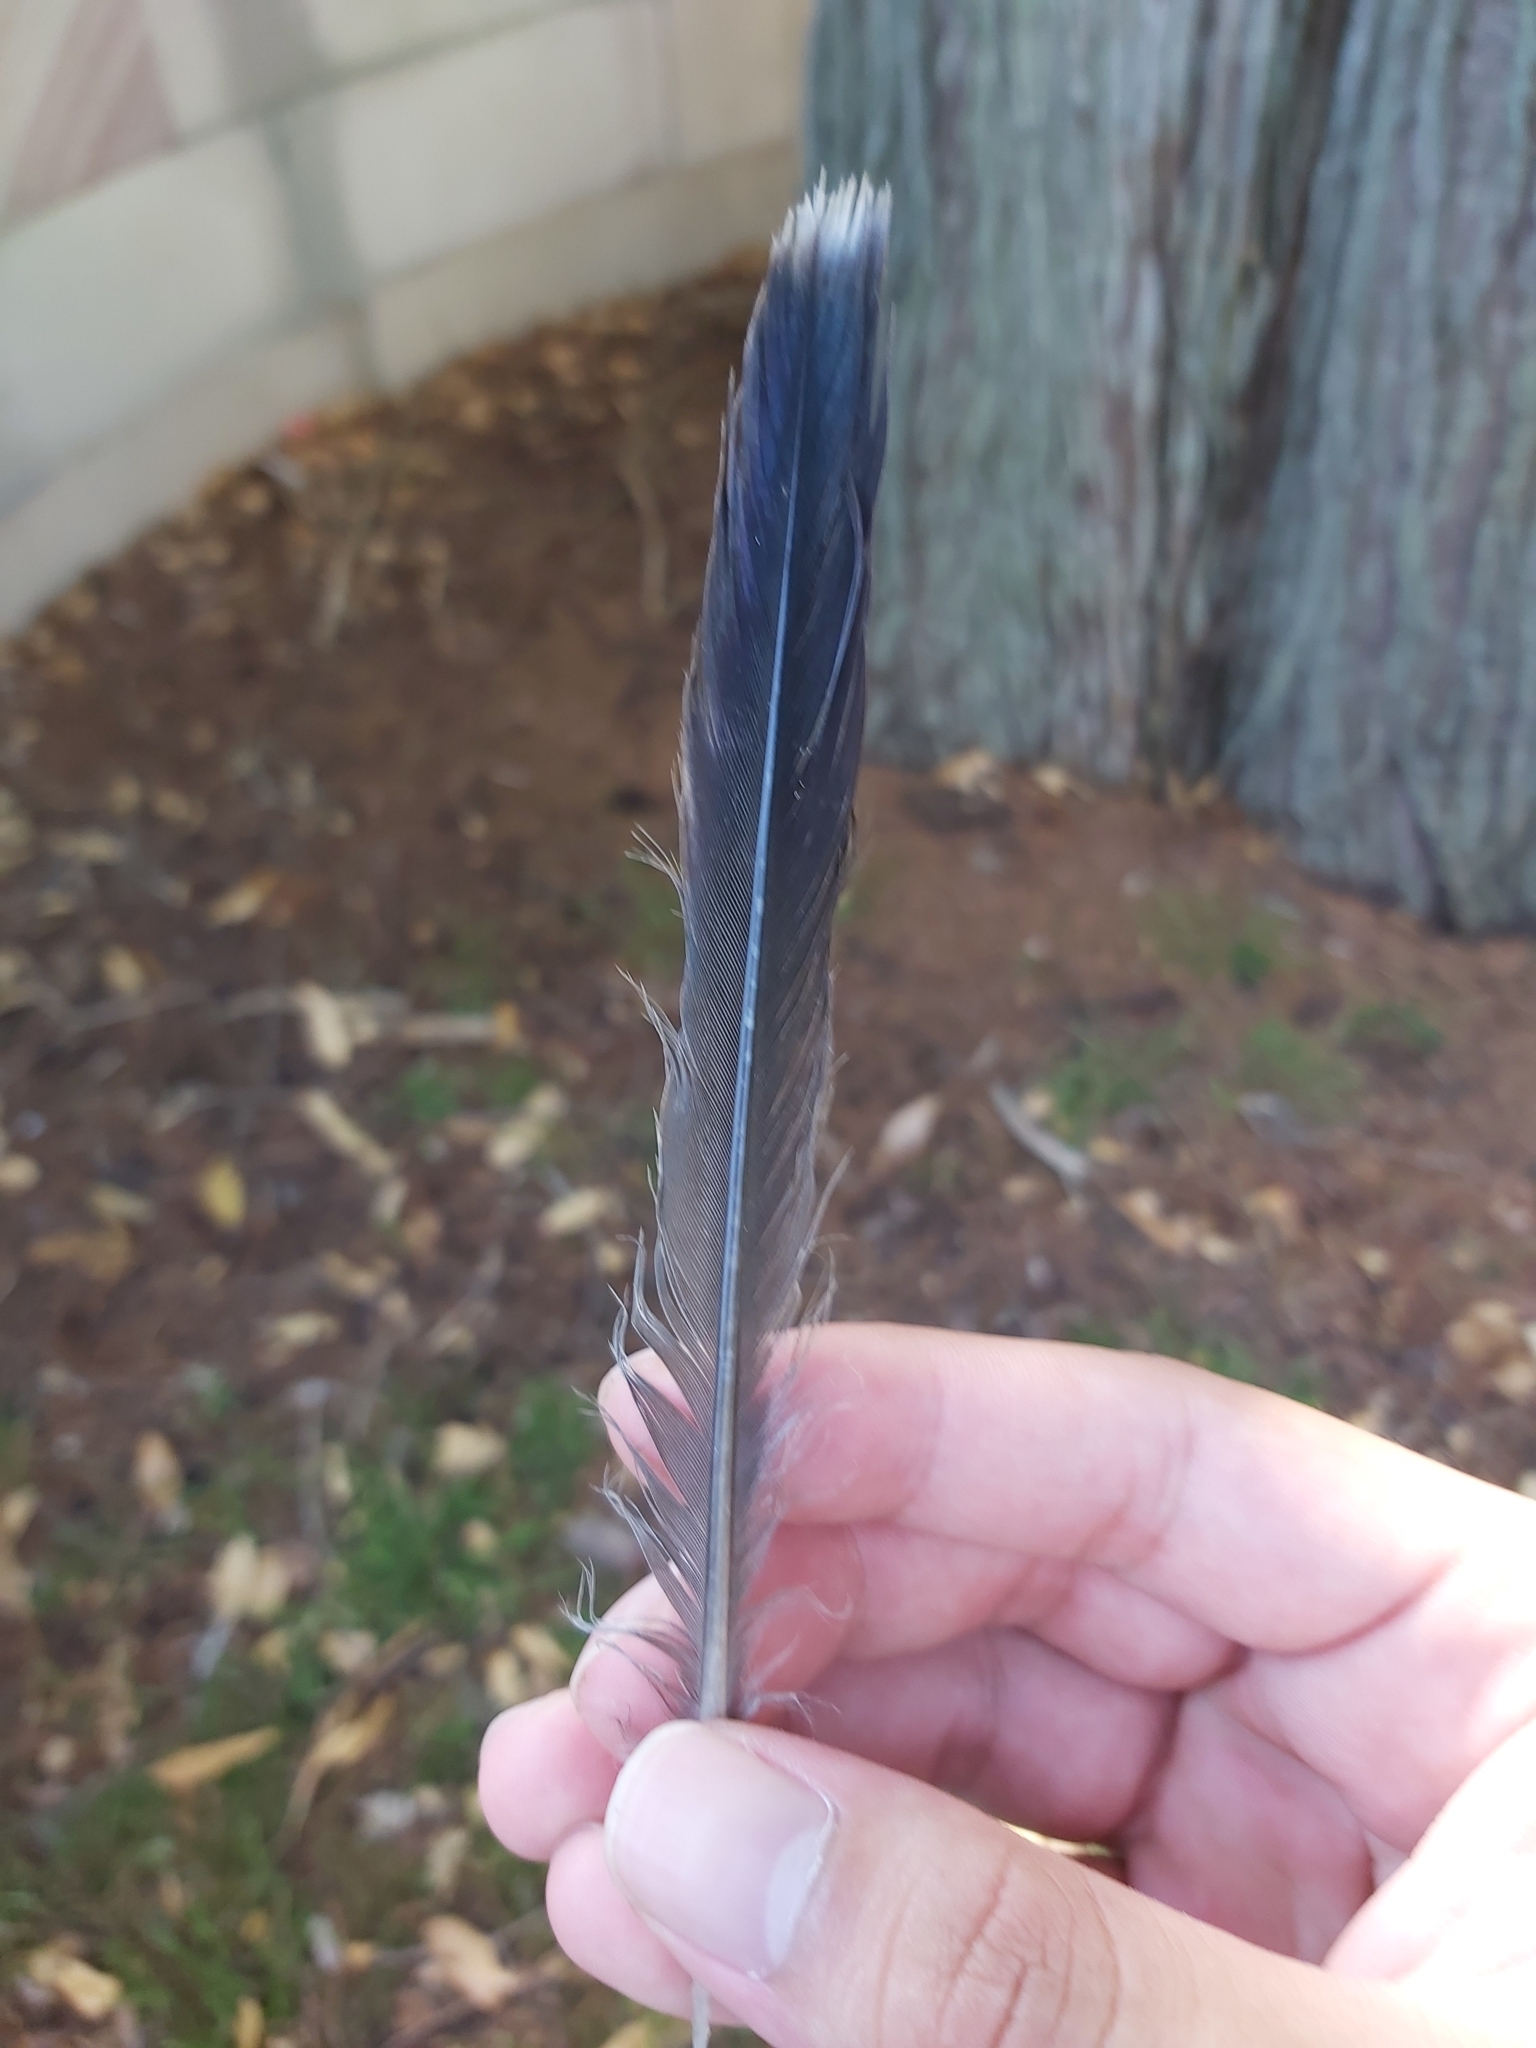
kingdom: Animalia
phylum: Chordata
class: Aves
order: Columbiformes
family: Columbidae
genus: Ocyphaps
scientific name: Ocyphaps lophotes
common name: Crested pigeon
